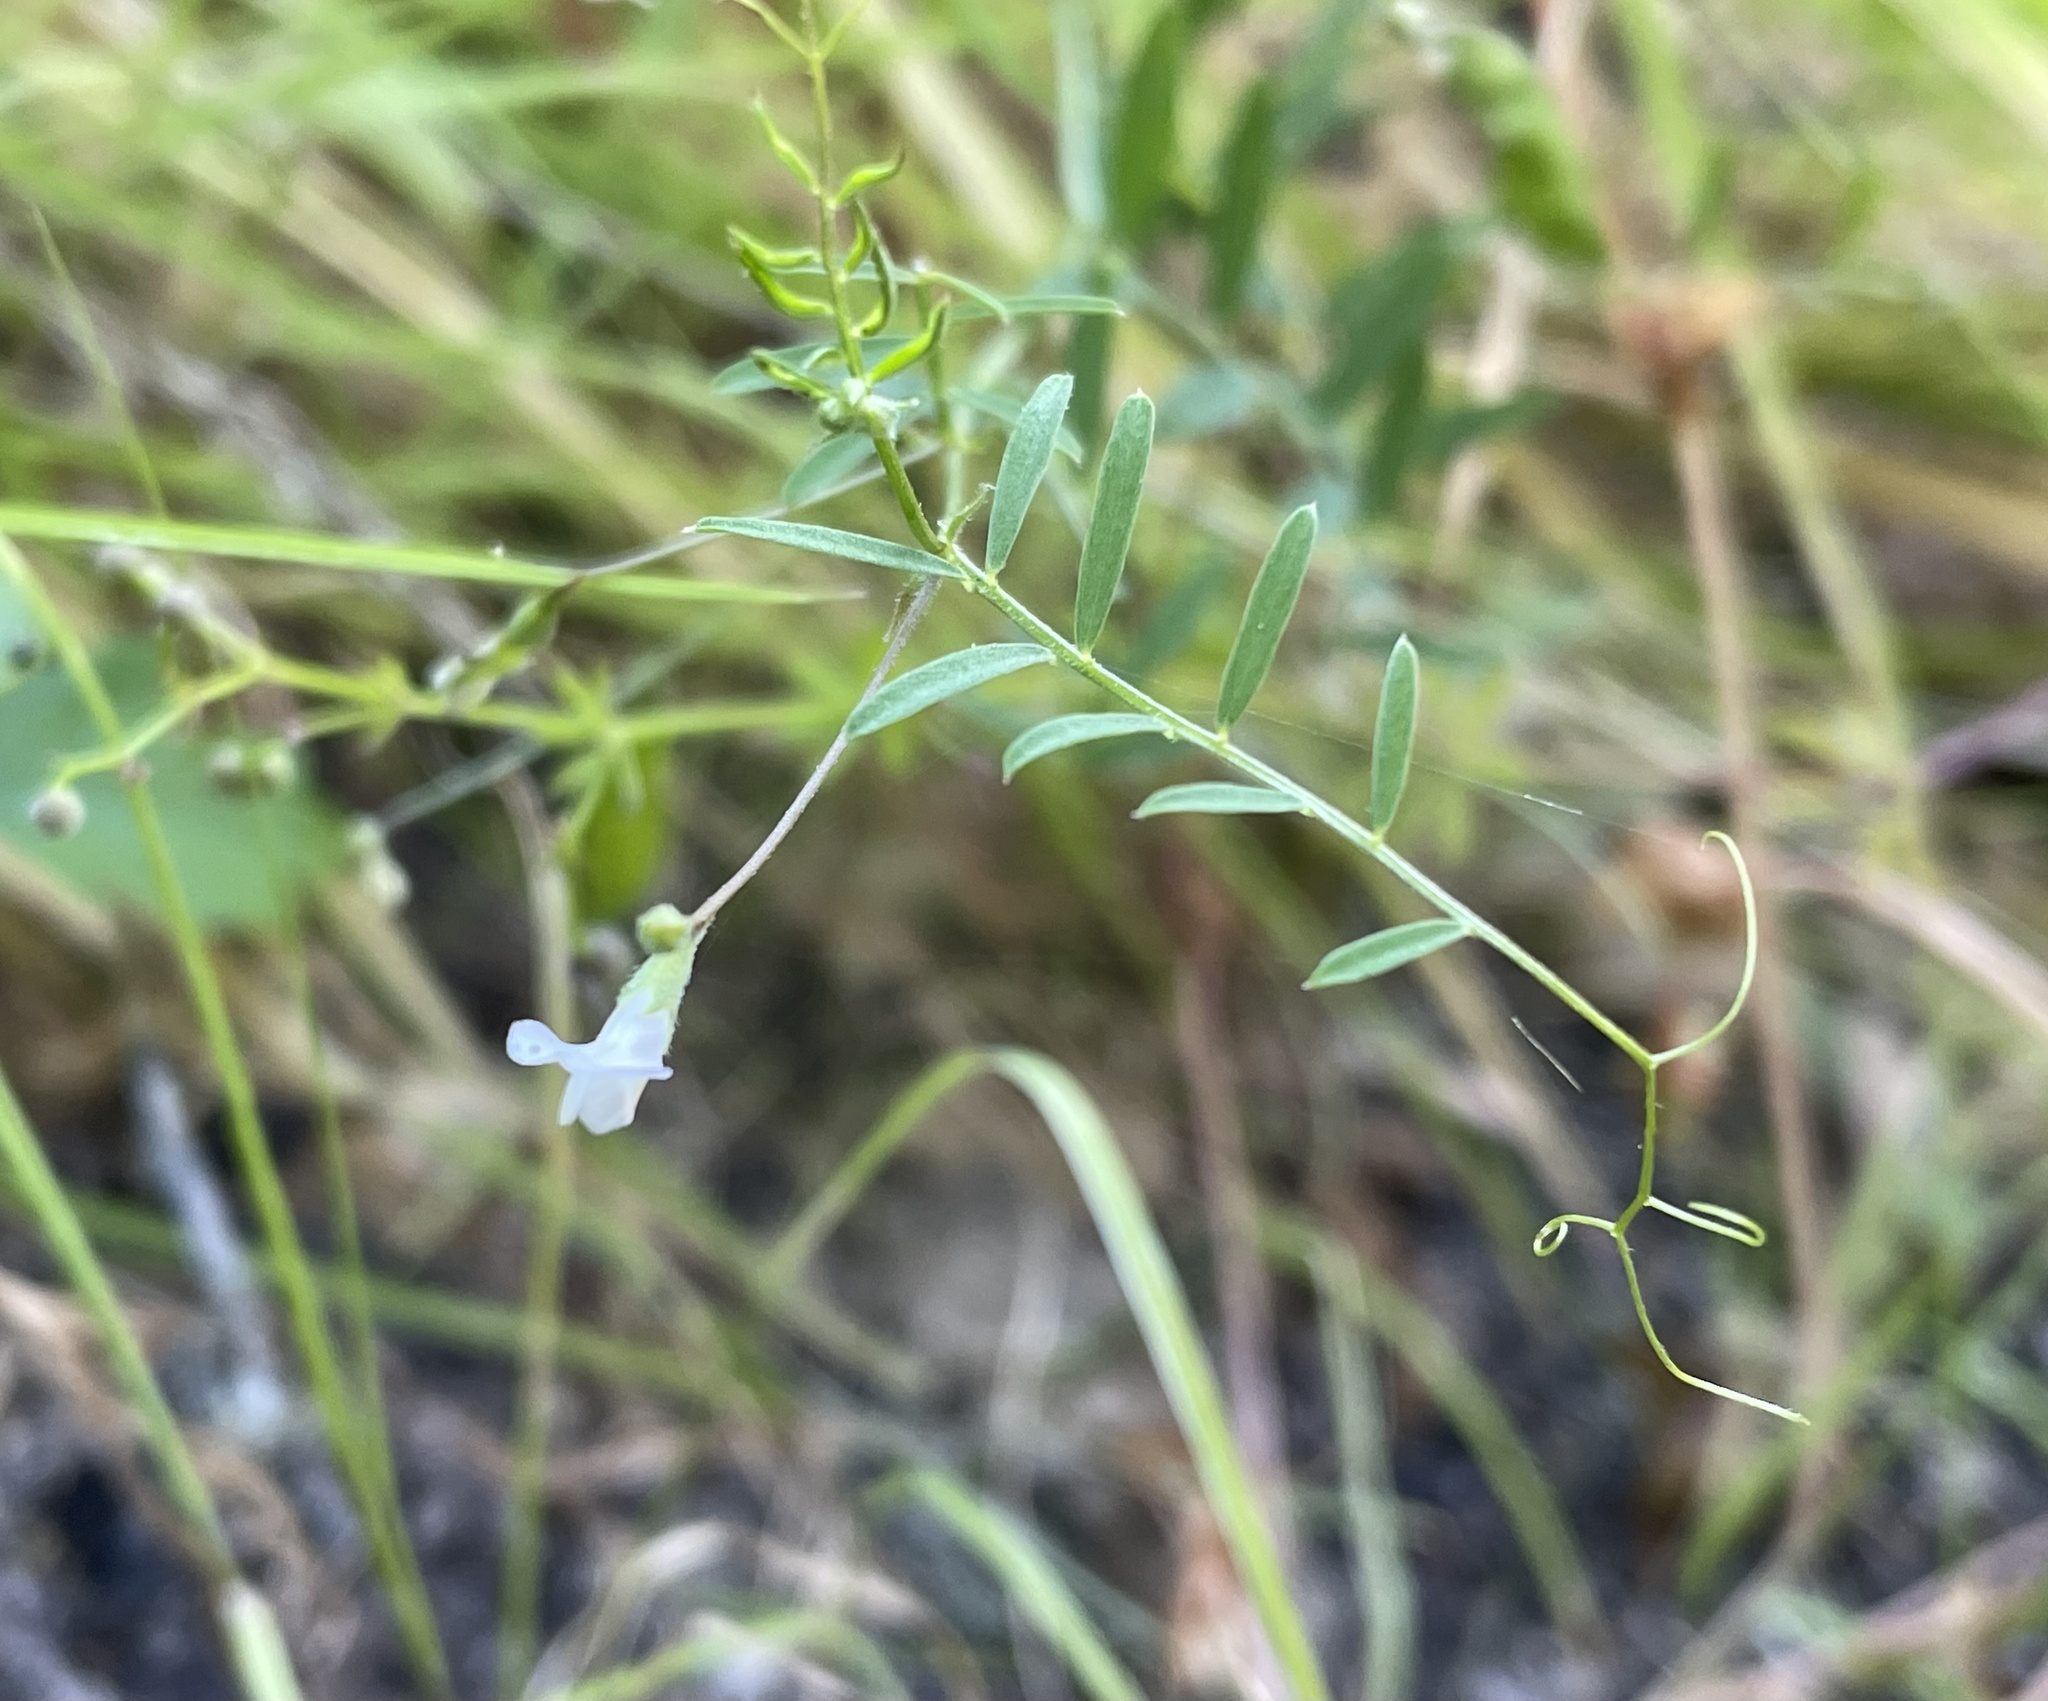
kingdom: Plantae
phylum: Tracheophyta
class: Magnoliopsida
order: Fabales
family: Fabaceae
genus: Vicia
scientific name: Vicia hassei
